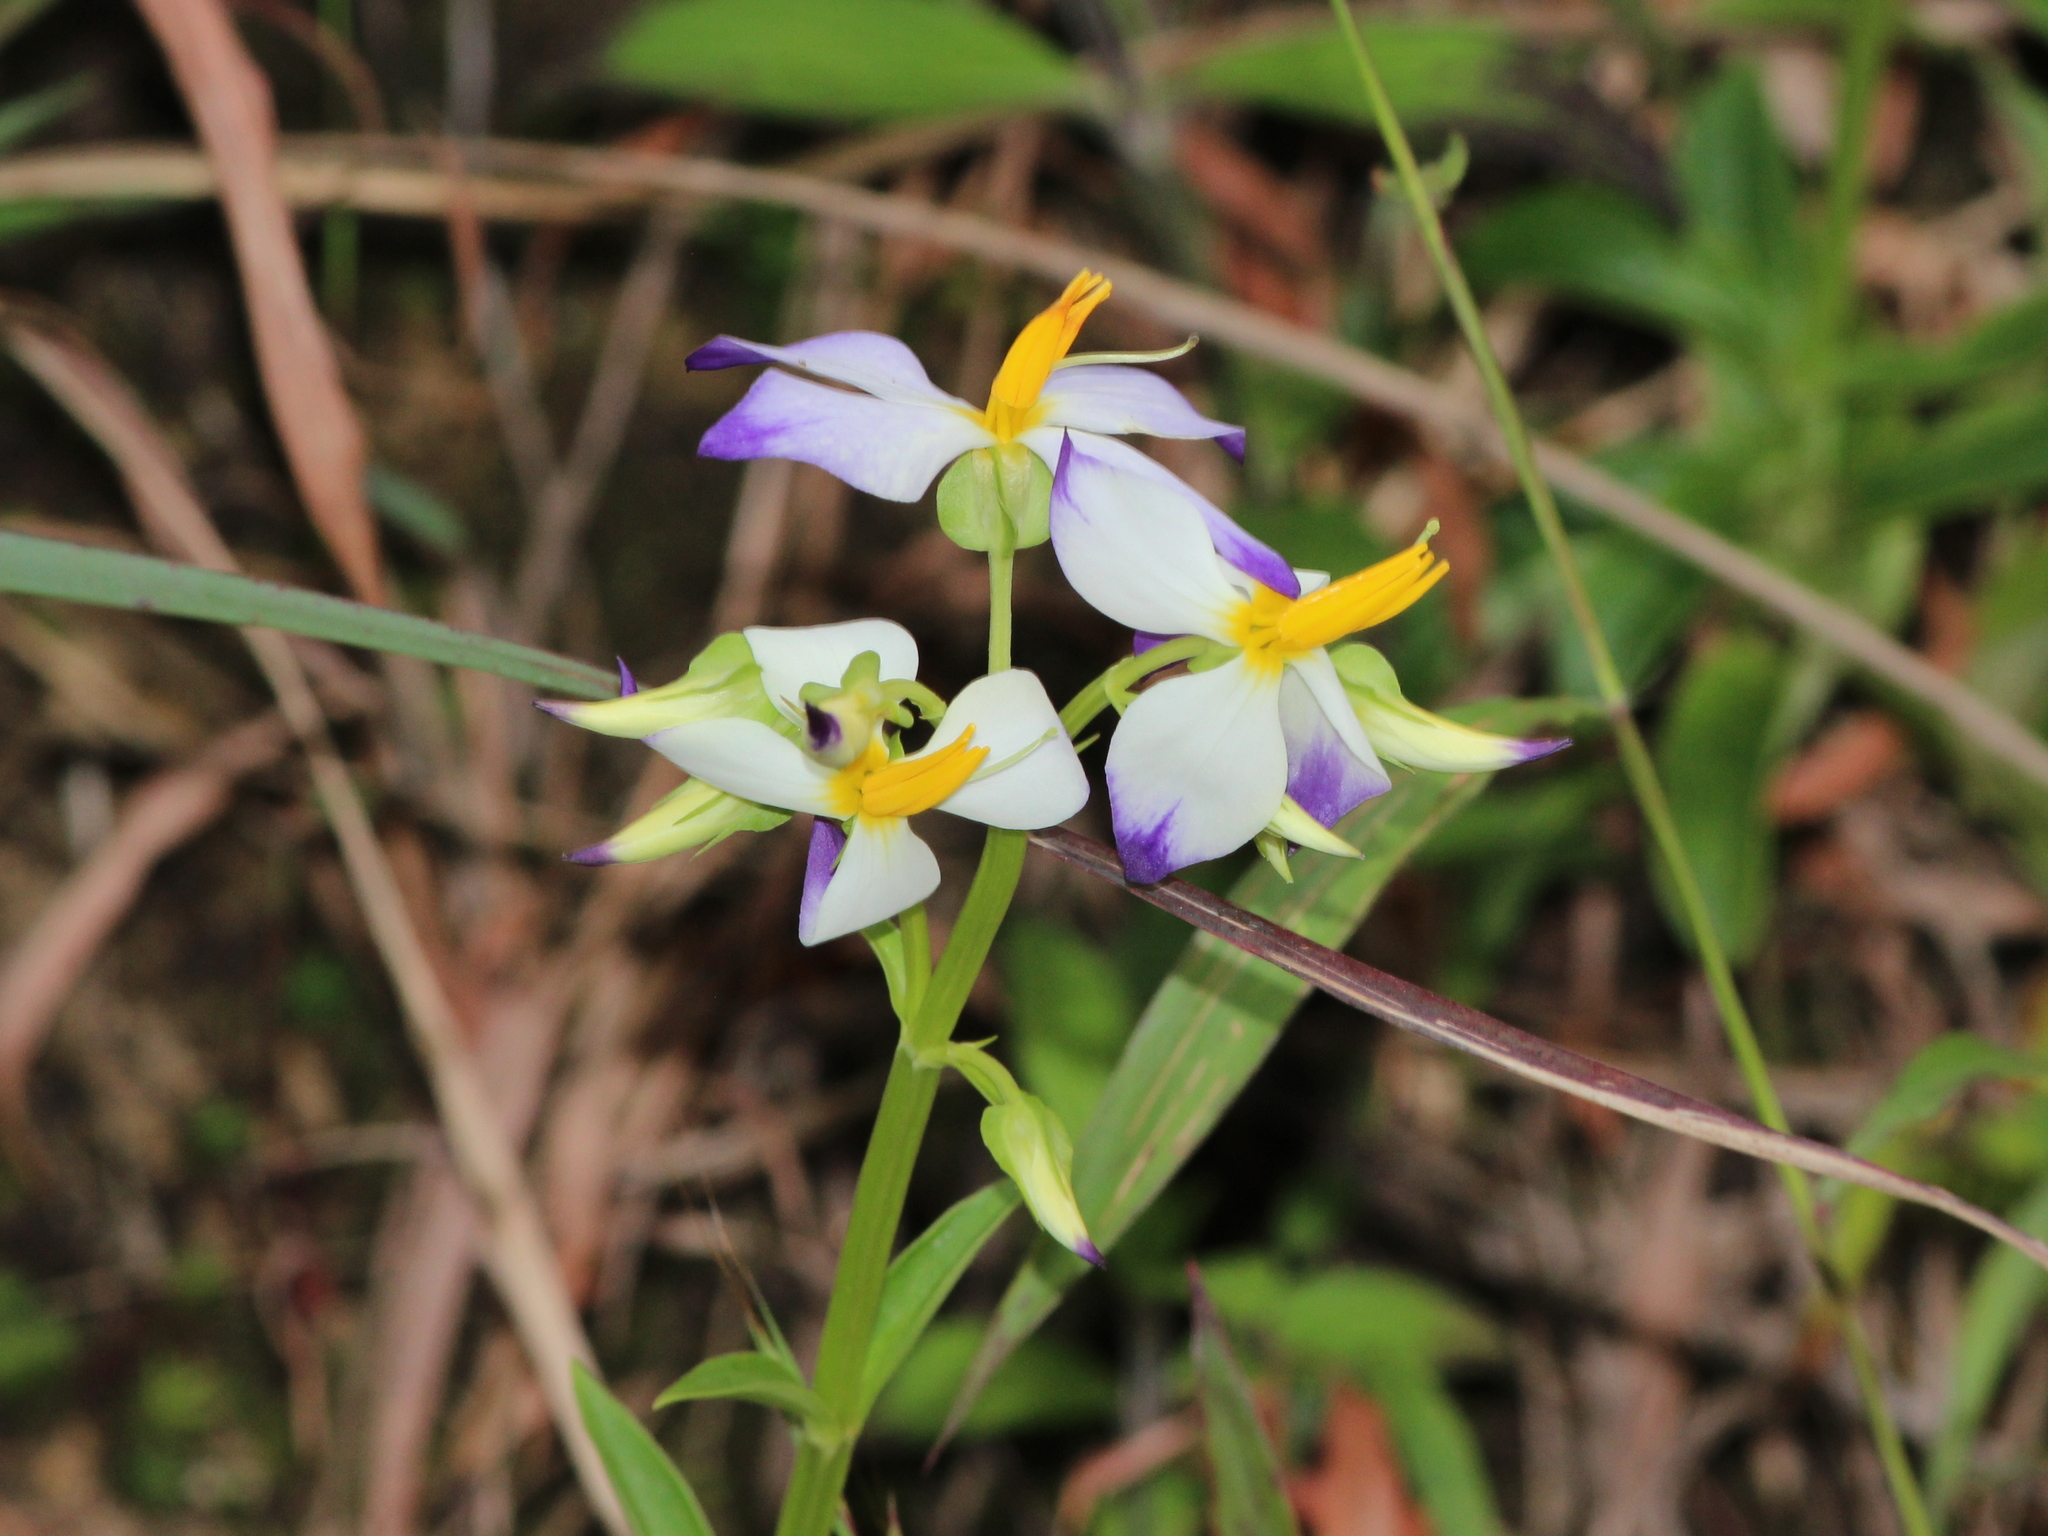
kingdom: Plantae
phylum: Tracheophyta
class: Magnoliopsida
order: Gentianales
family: Gentianaceae
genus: Exacum
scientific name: Exacum tetragonum
